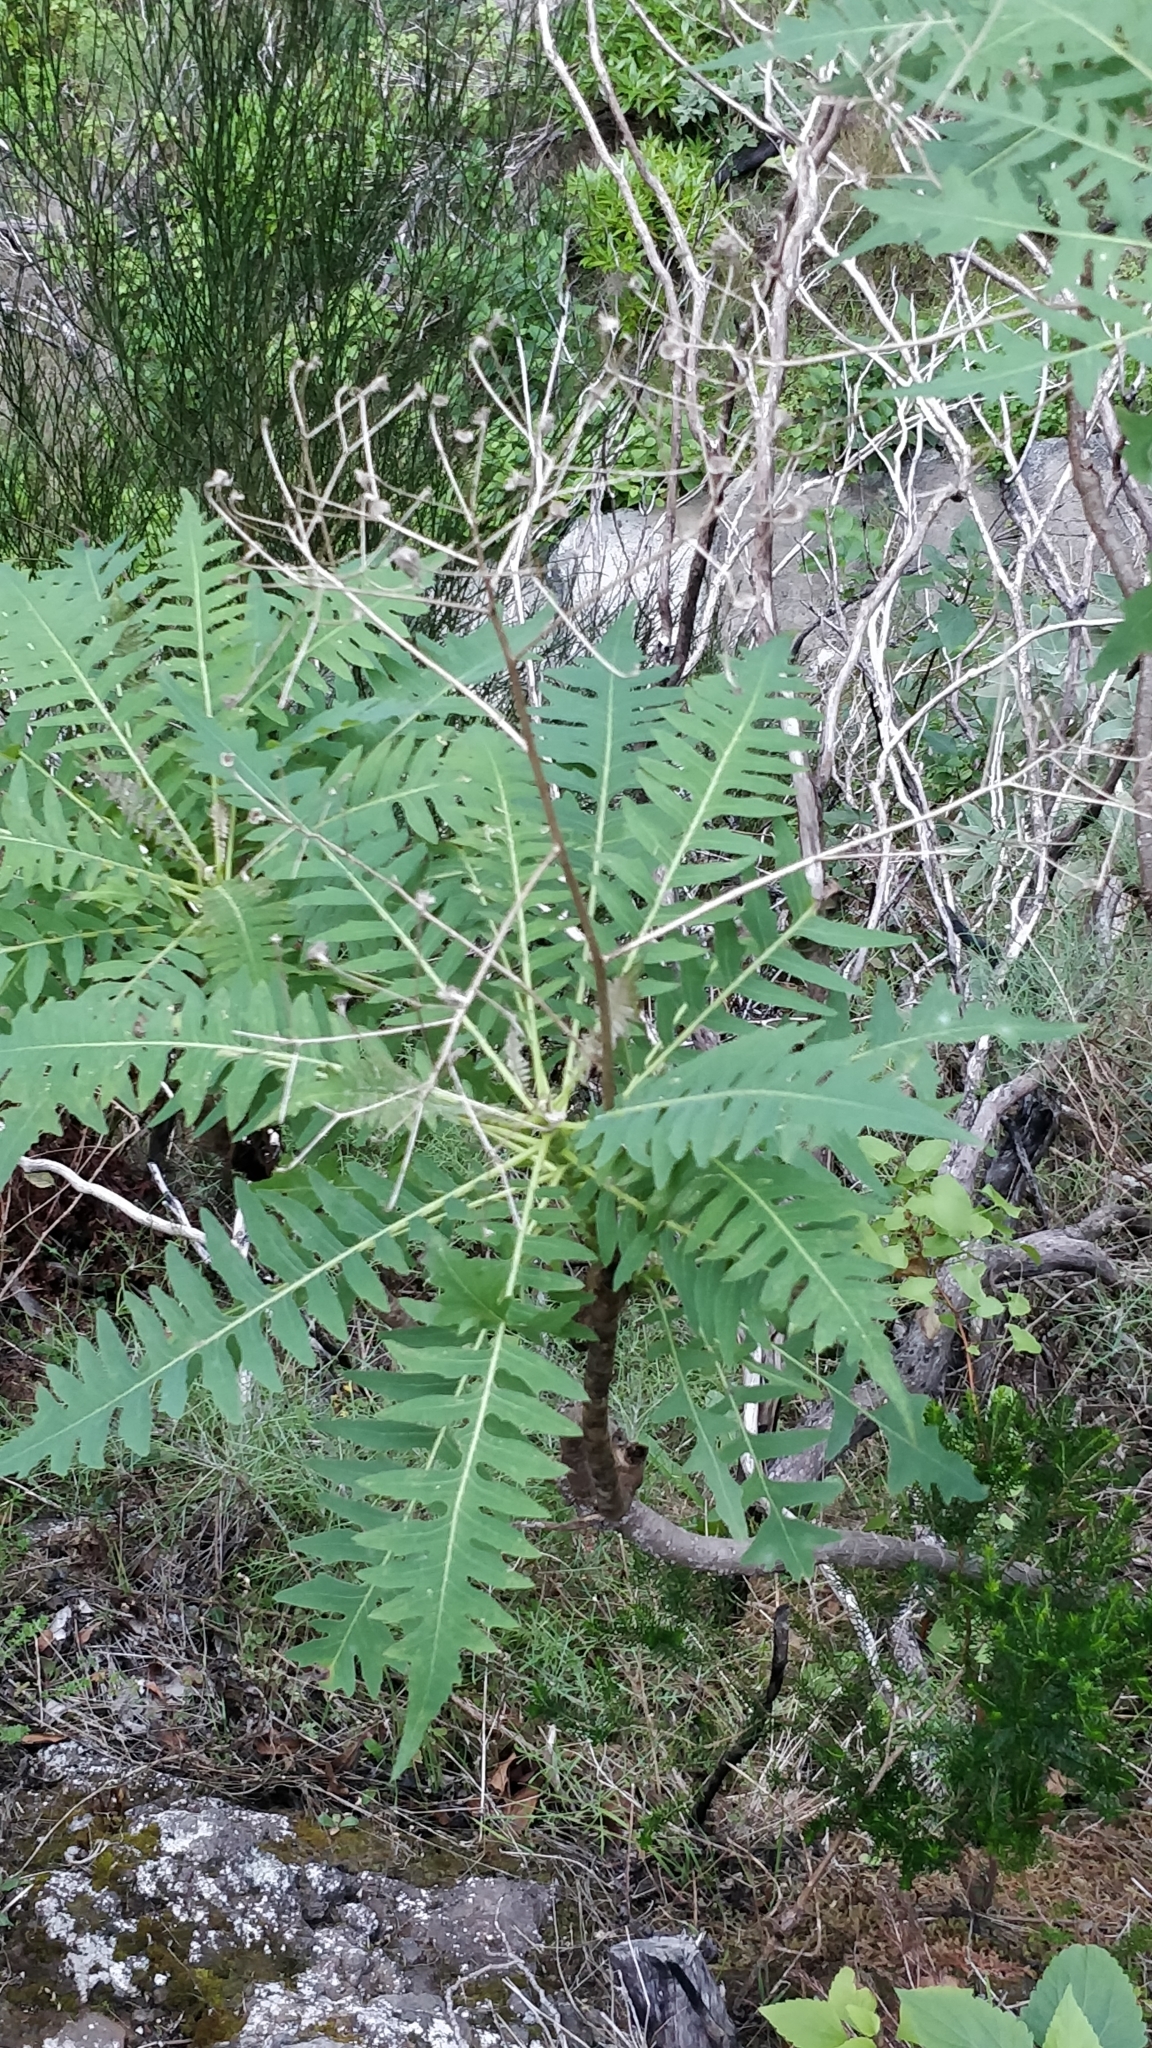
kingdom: Plantae
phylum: Tracheophyta
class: Magnoliopsida
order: Asterales
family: Asteraceae
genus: Sonchus
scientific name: Sonchus pinnatus
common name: Wing-leaved sow-thistle
